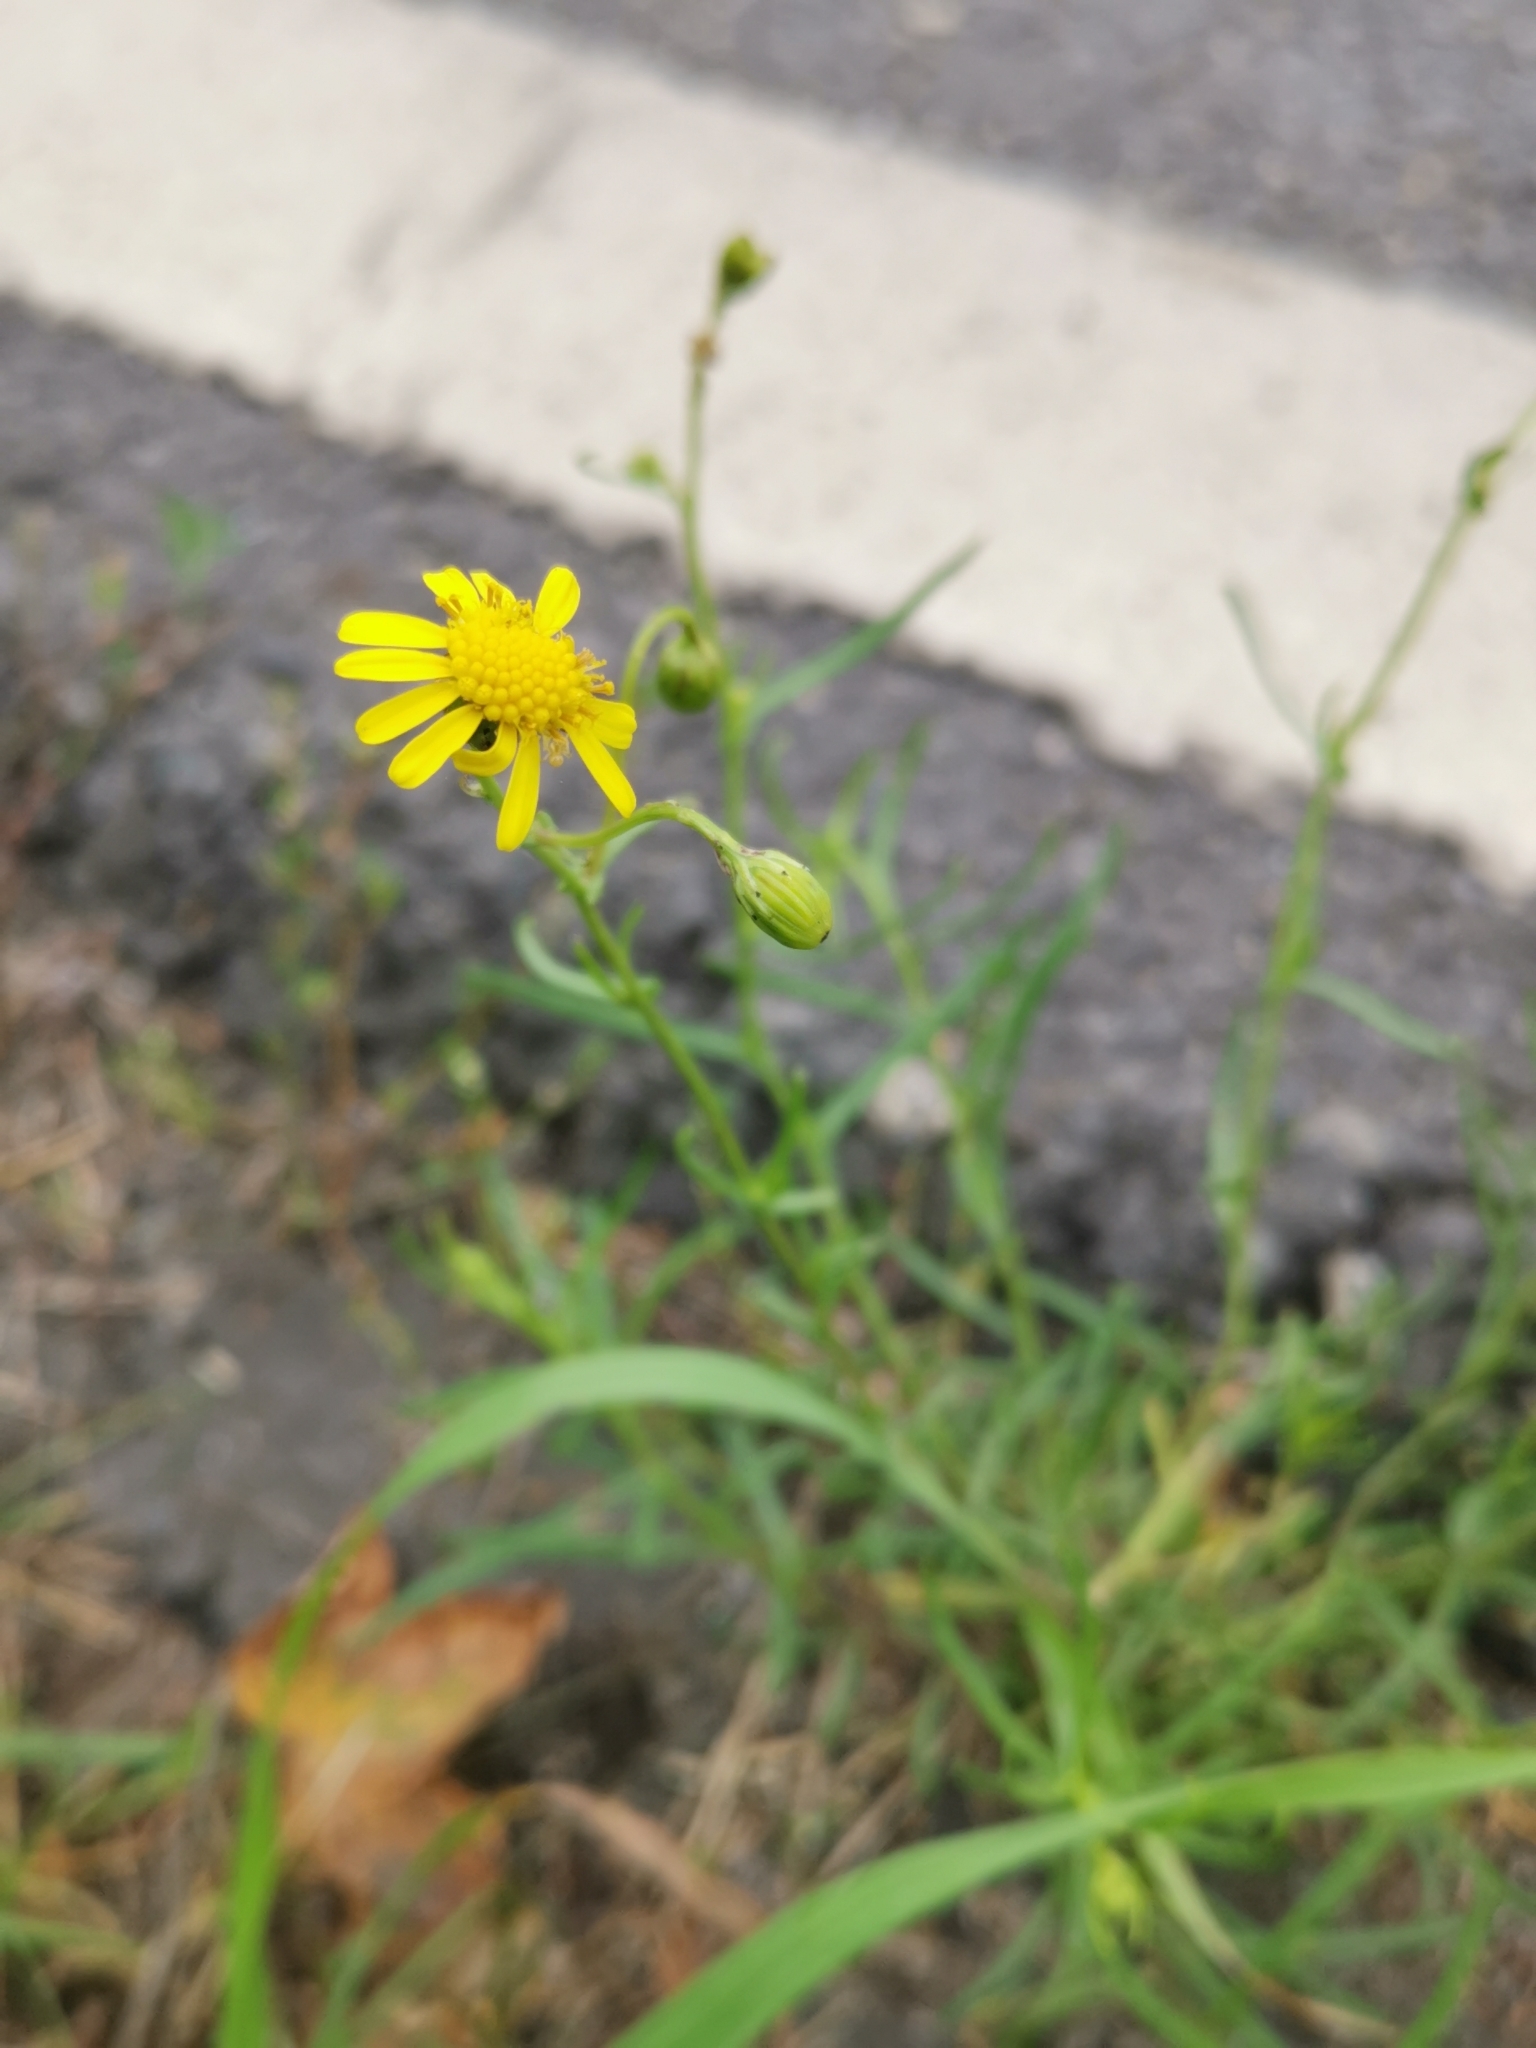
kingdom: Plantae
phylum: Tracheophyta
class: Magnoliopsida
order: Asterales
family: Asteraceae
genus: Senecio
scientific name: Senecio inaequidens
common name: Narrow-leaved ragwort
